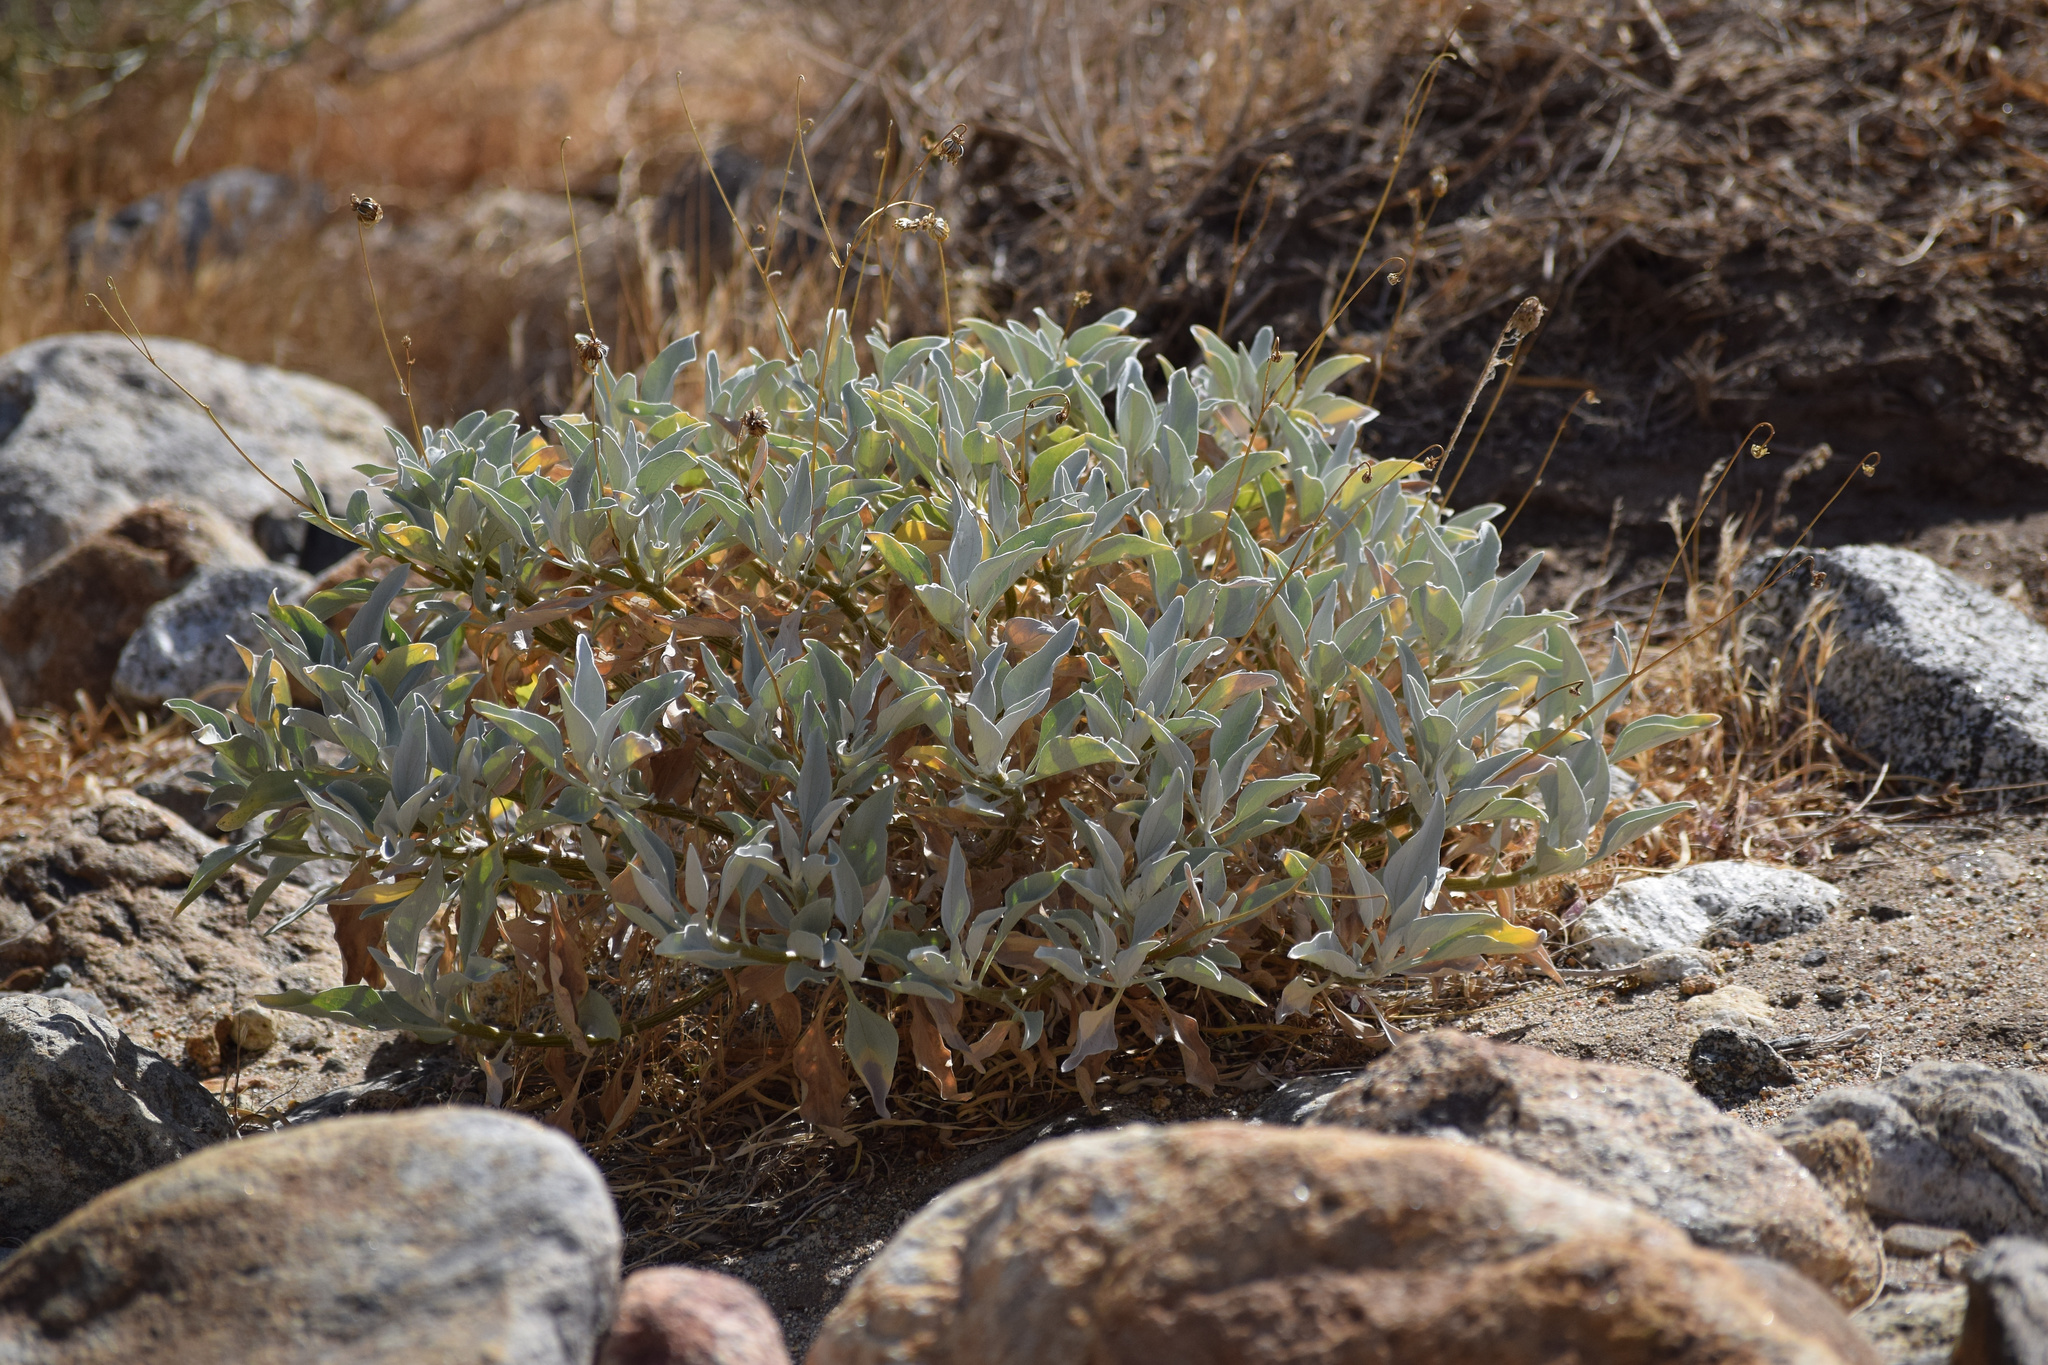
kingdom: Plantae
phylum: Tracheophyta
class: Magnoliopsida
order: Asterales
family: Asteraceae
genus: Encelia
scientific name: Encelia farinosa
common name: Brittlebush
